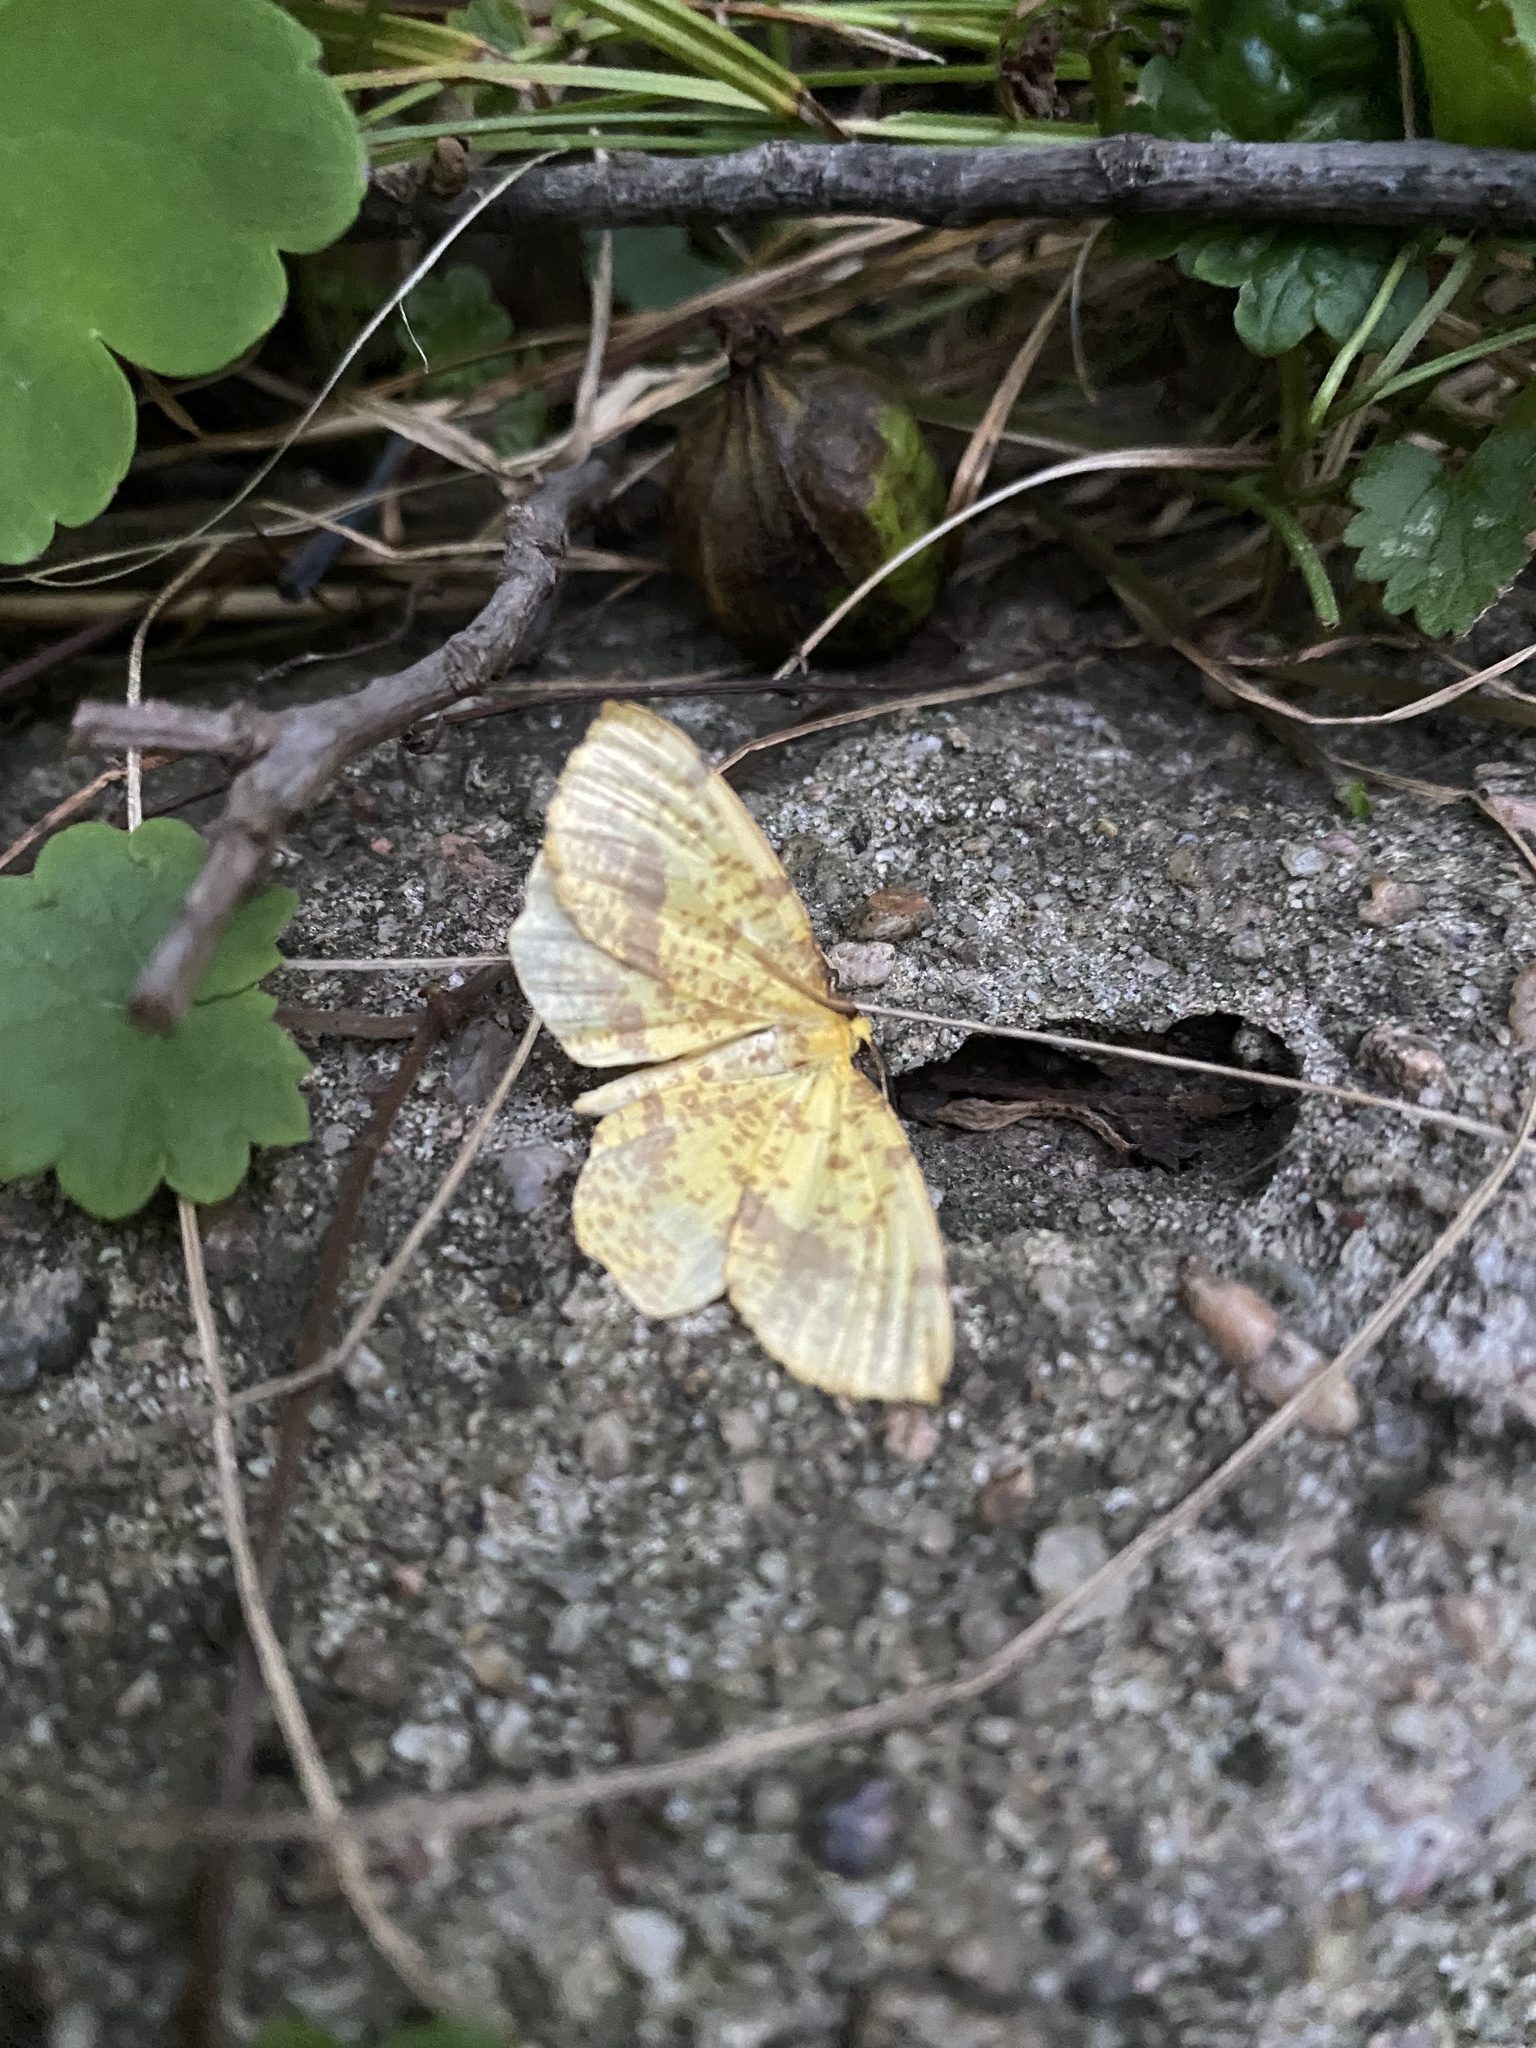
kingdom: Animalia
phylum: Arthropoda
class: Insecta
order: Lepidoptera
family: Geometridae
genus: Xanthotype
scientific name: Xanthotype
